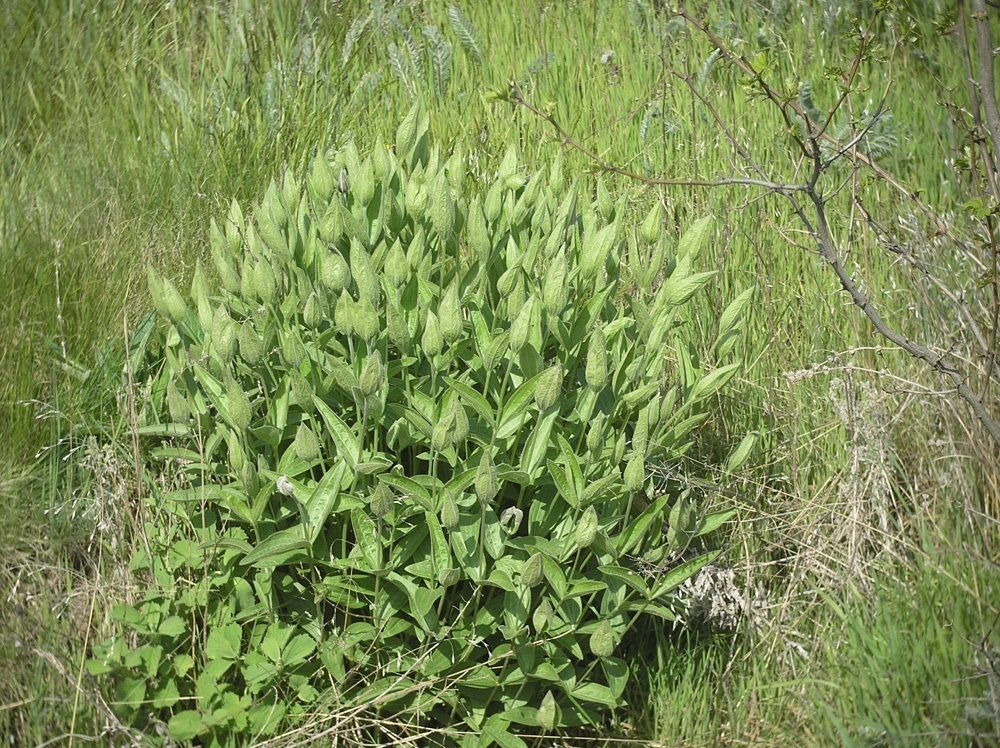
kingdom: Plantae
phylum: Tracheophyta
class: Magnoliopsida
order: Ranunculales
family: Ranunculaceae
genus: Clematis
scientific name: Clematis integrifolia
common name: Solitary clematis
